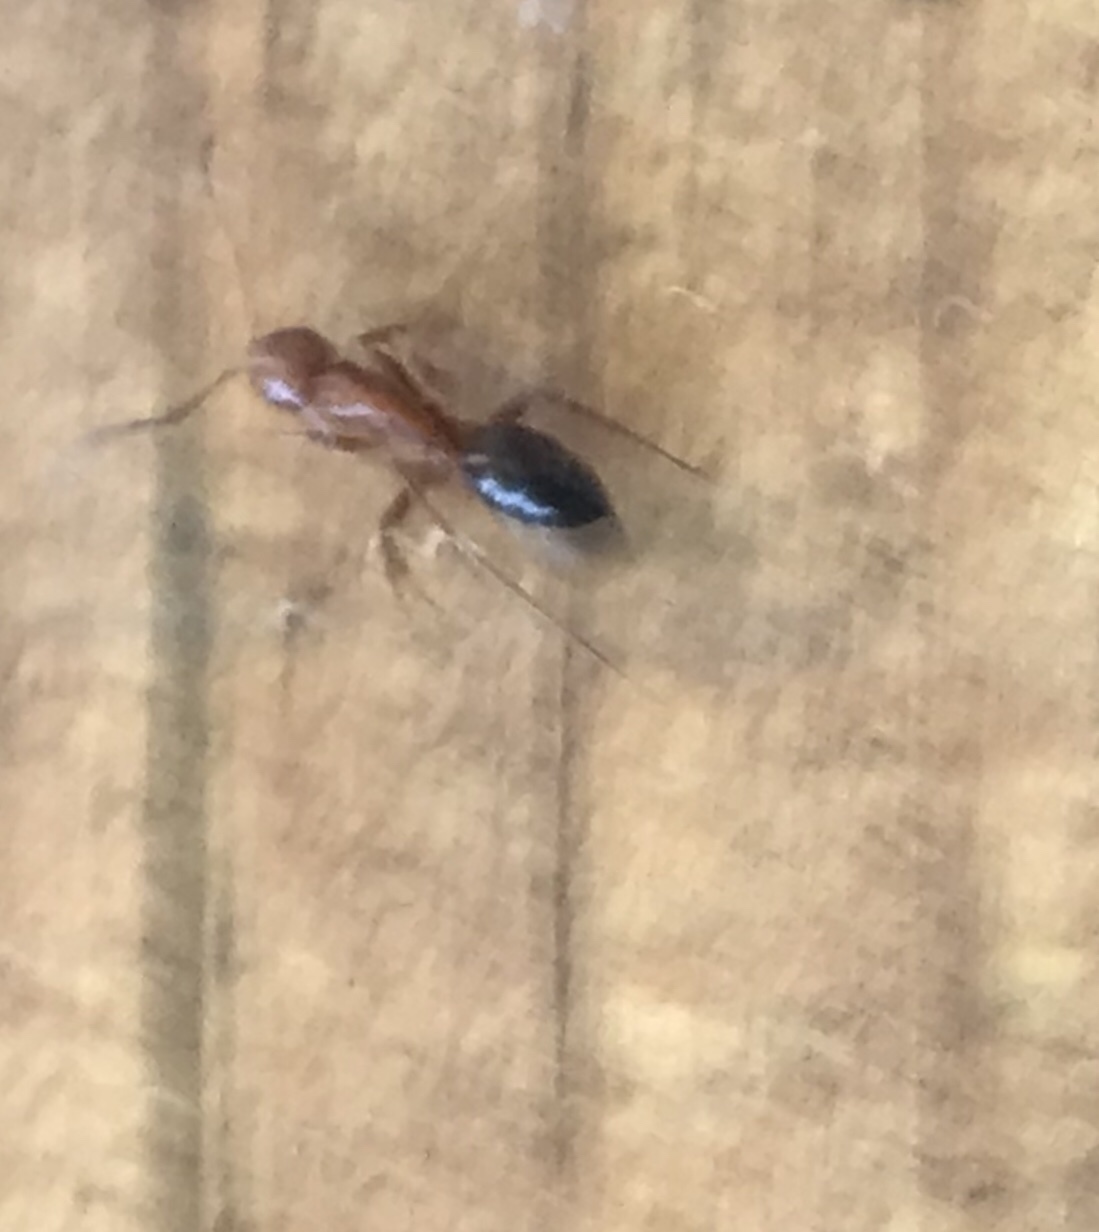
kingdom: Animalia
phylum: Arthropoda
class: Insecta
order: Hymenoptera
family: Formicidae
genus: Camponotus
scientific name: Camponotus decipiens
